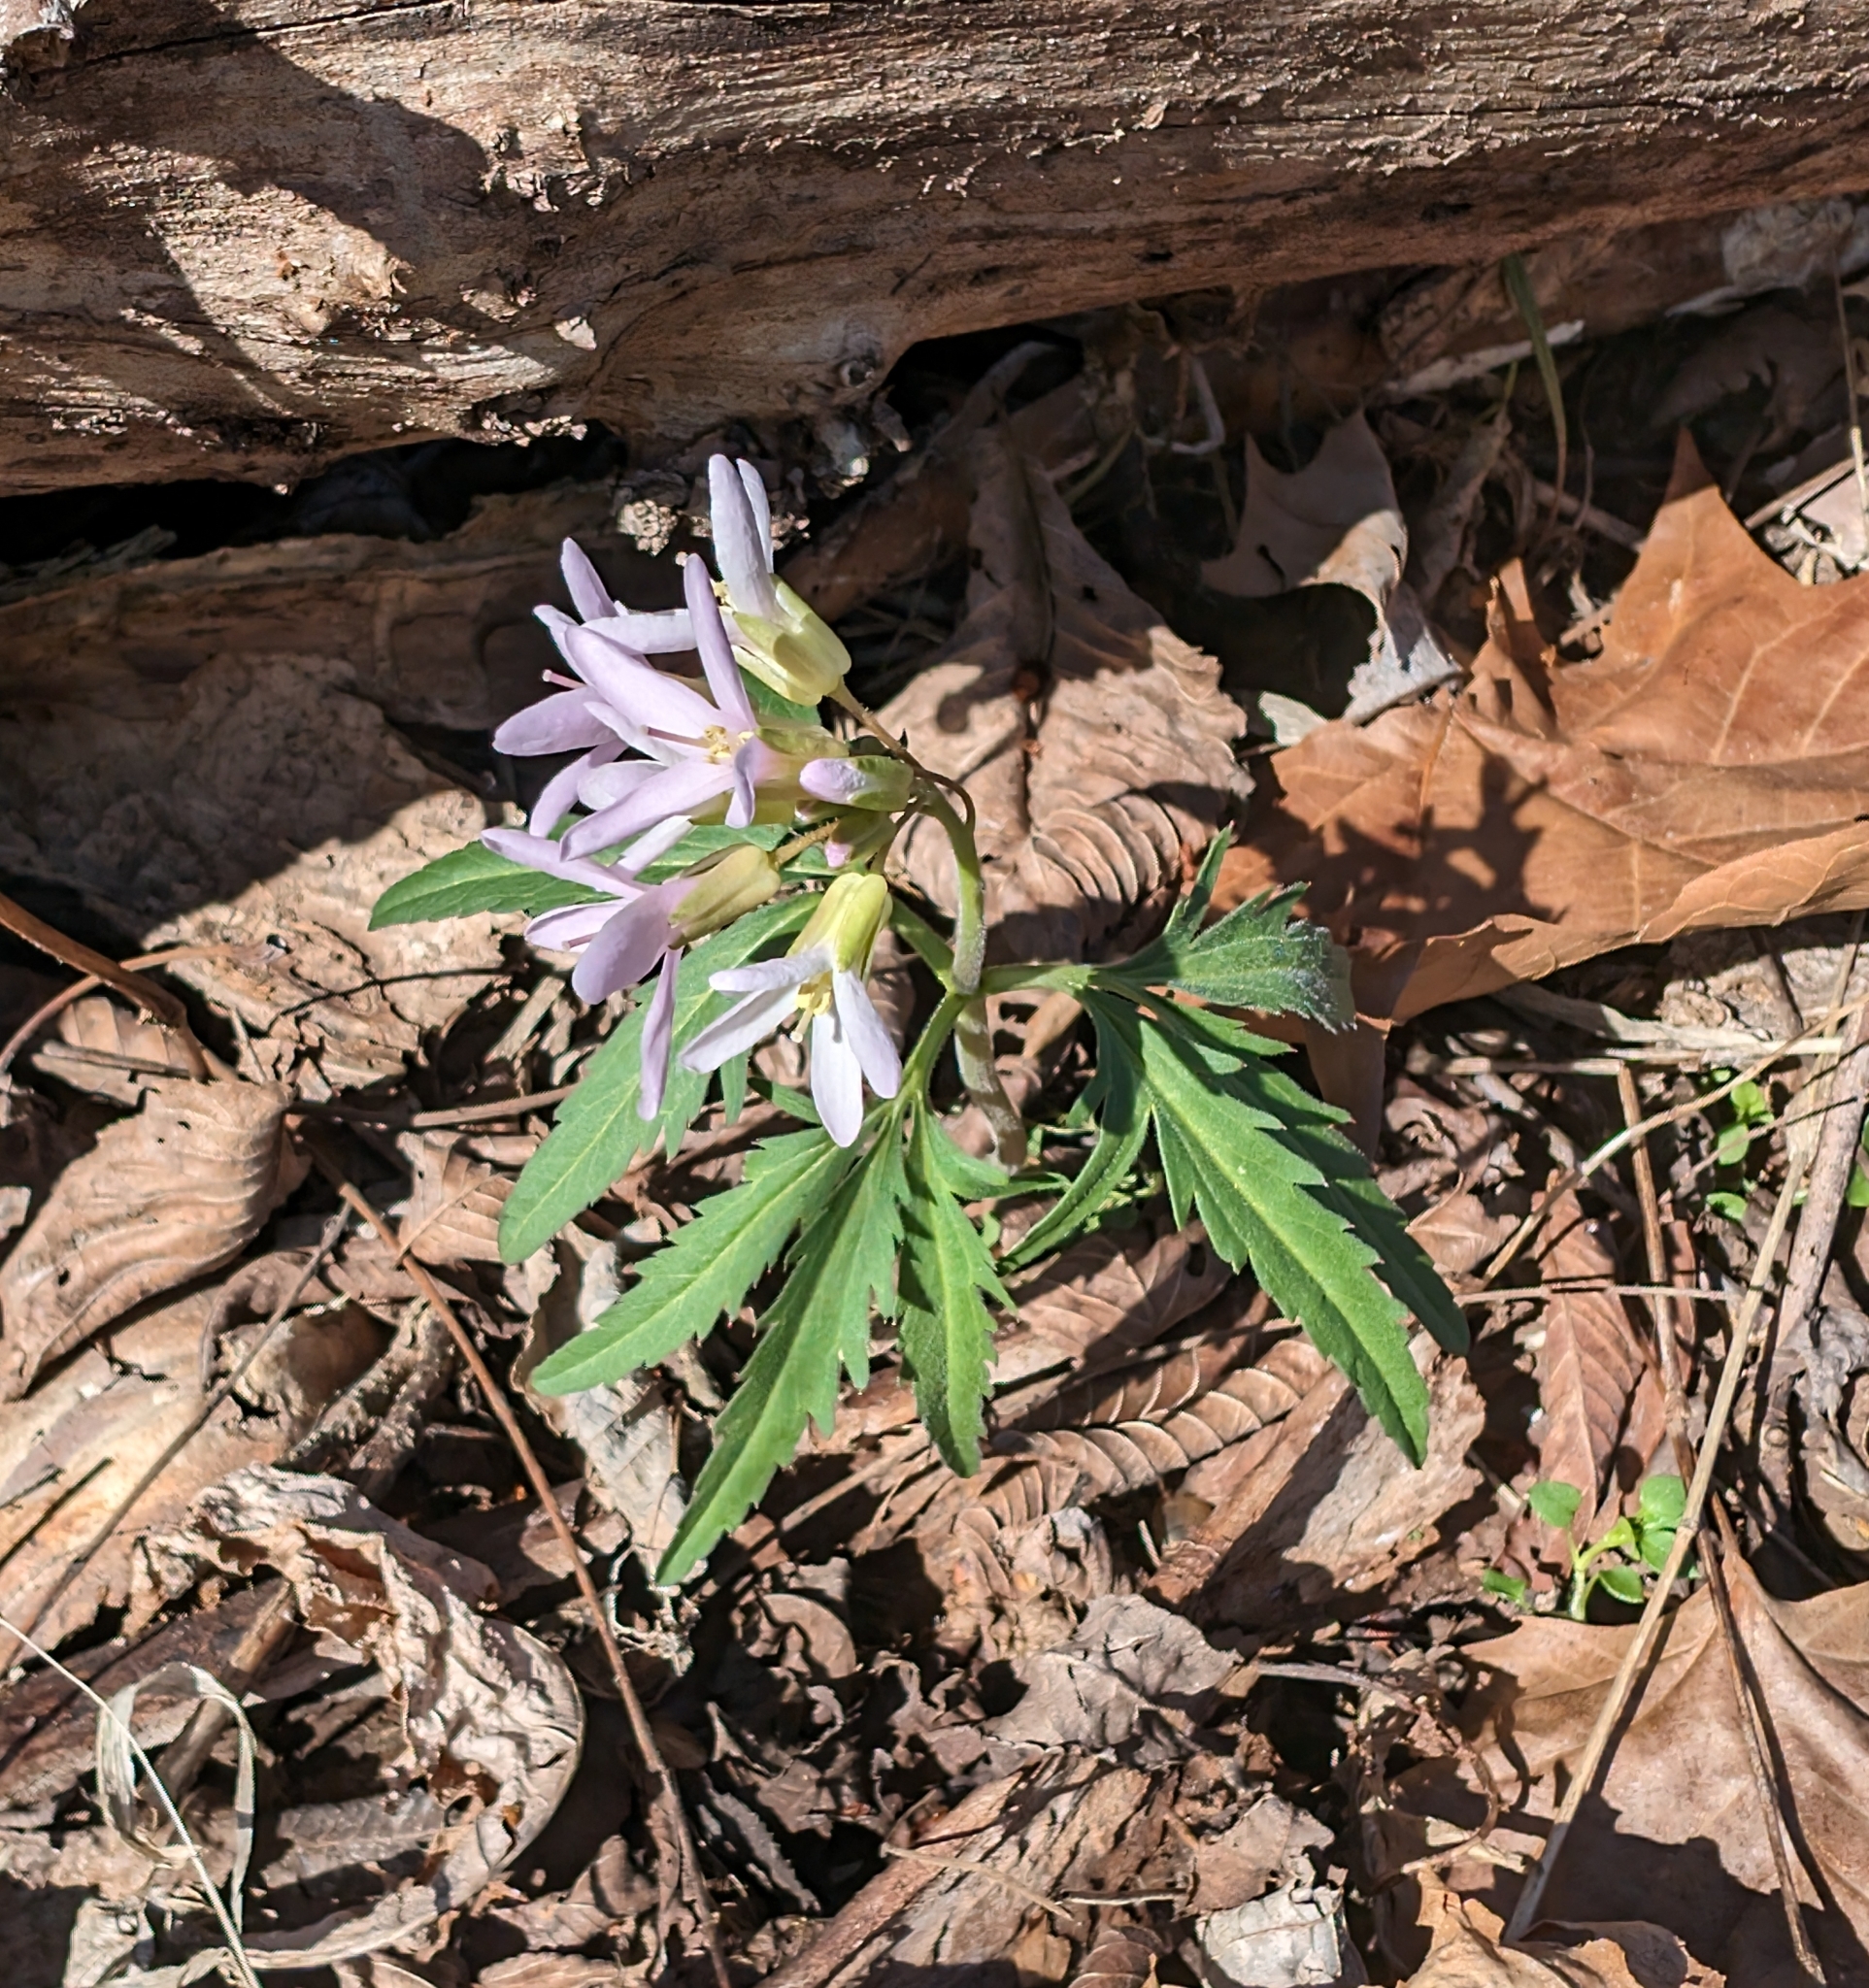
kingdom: Plantae
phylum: Tracheophyta
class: Magnoliopsida
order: Brassicales
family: Brassicaceae
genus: Cardamine
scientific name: Cardamine concatenata
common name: Cut-leaf toothcup
